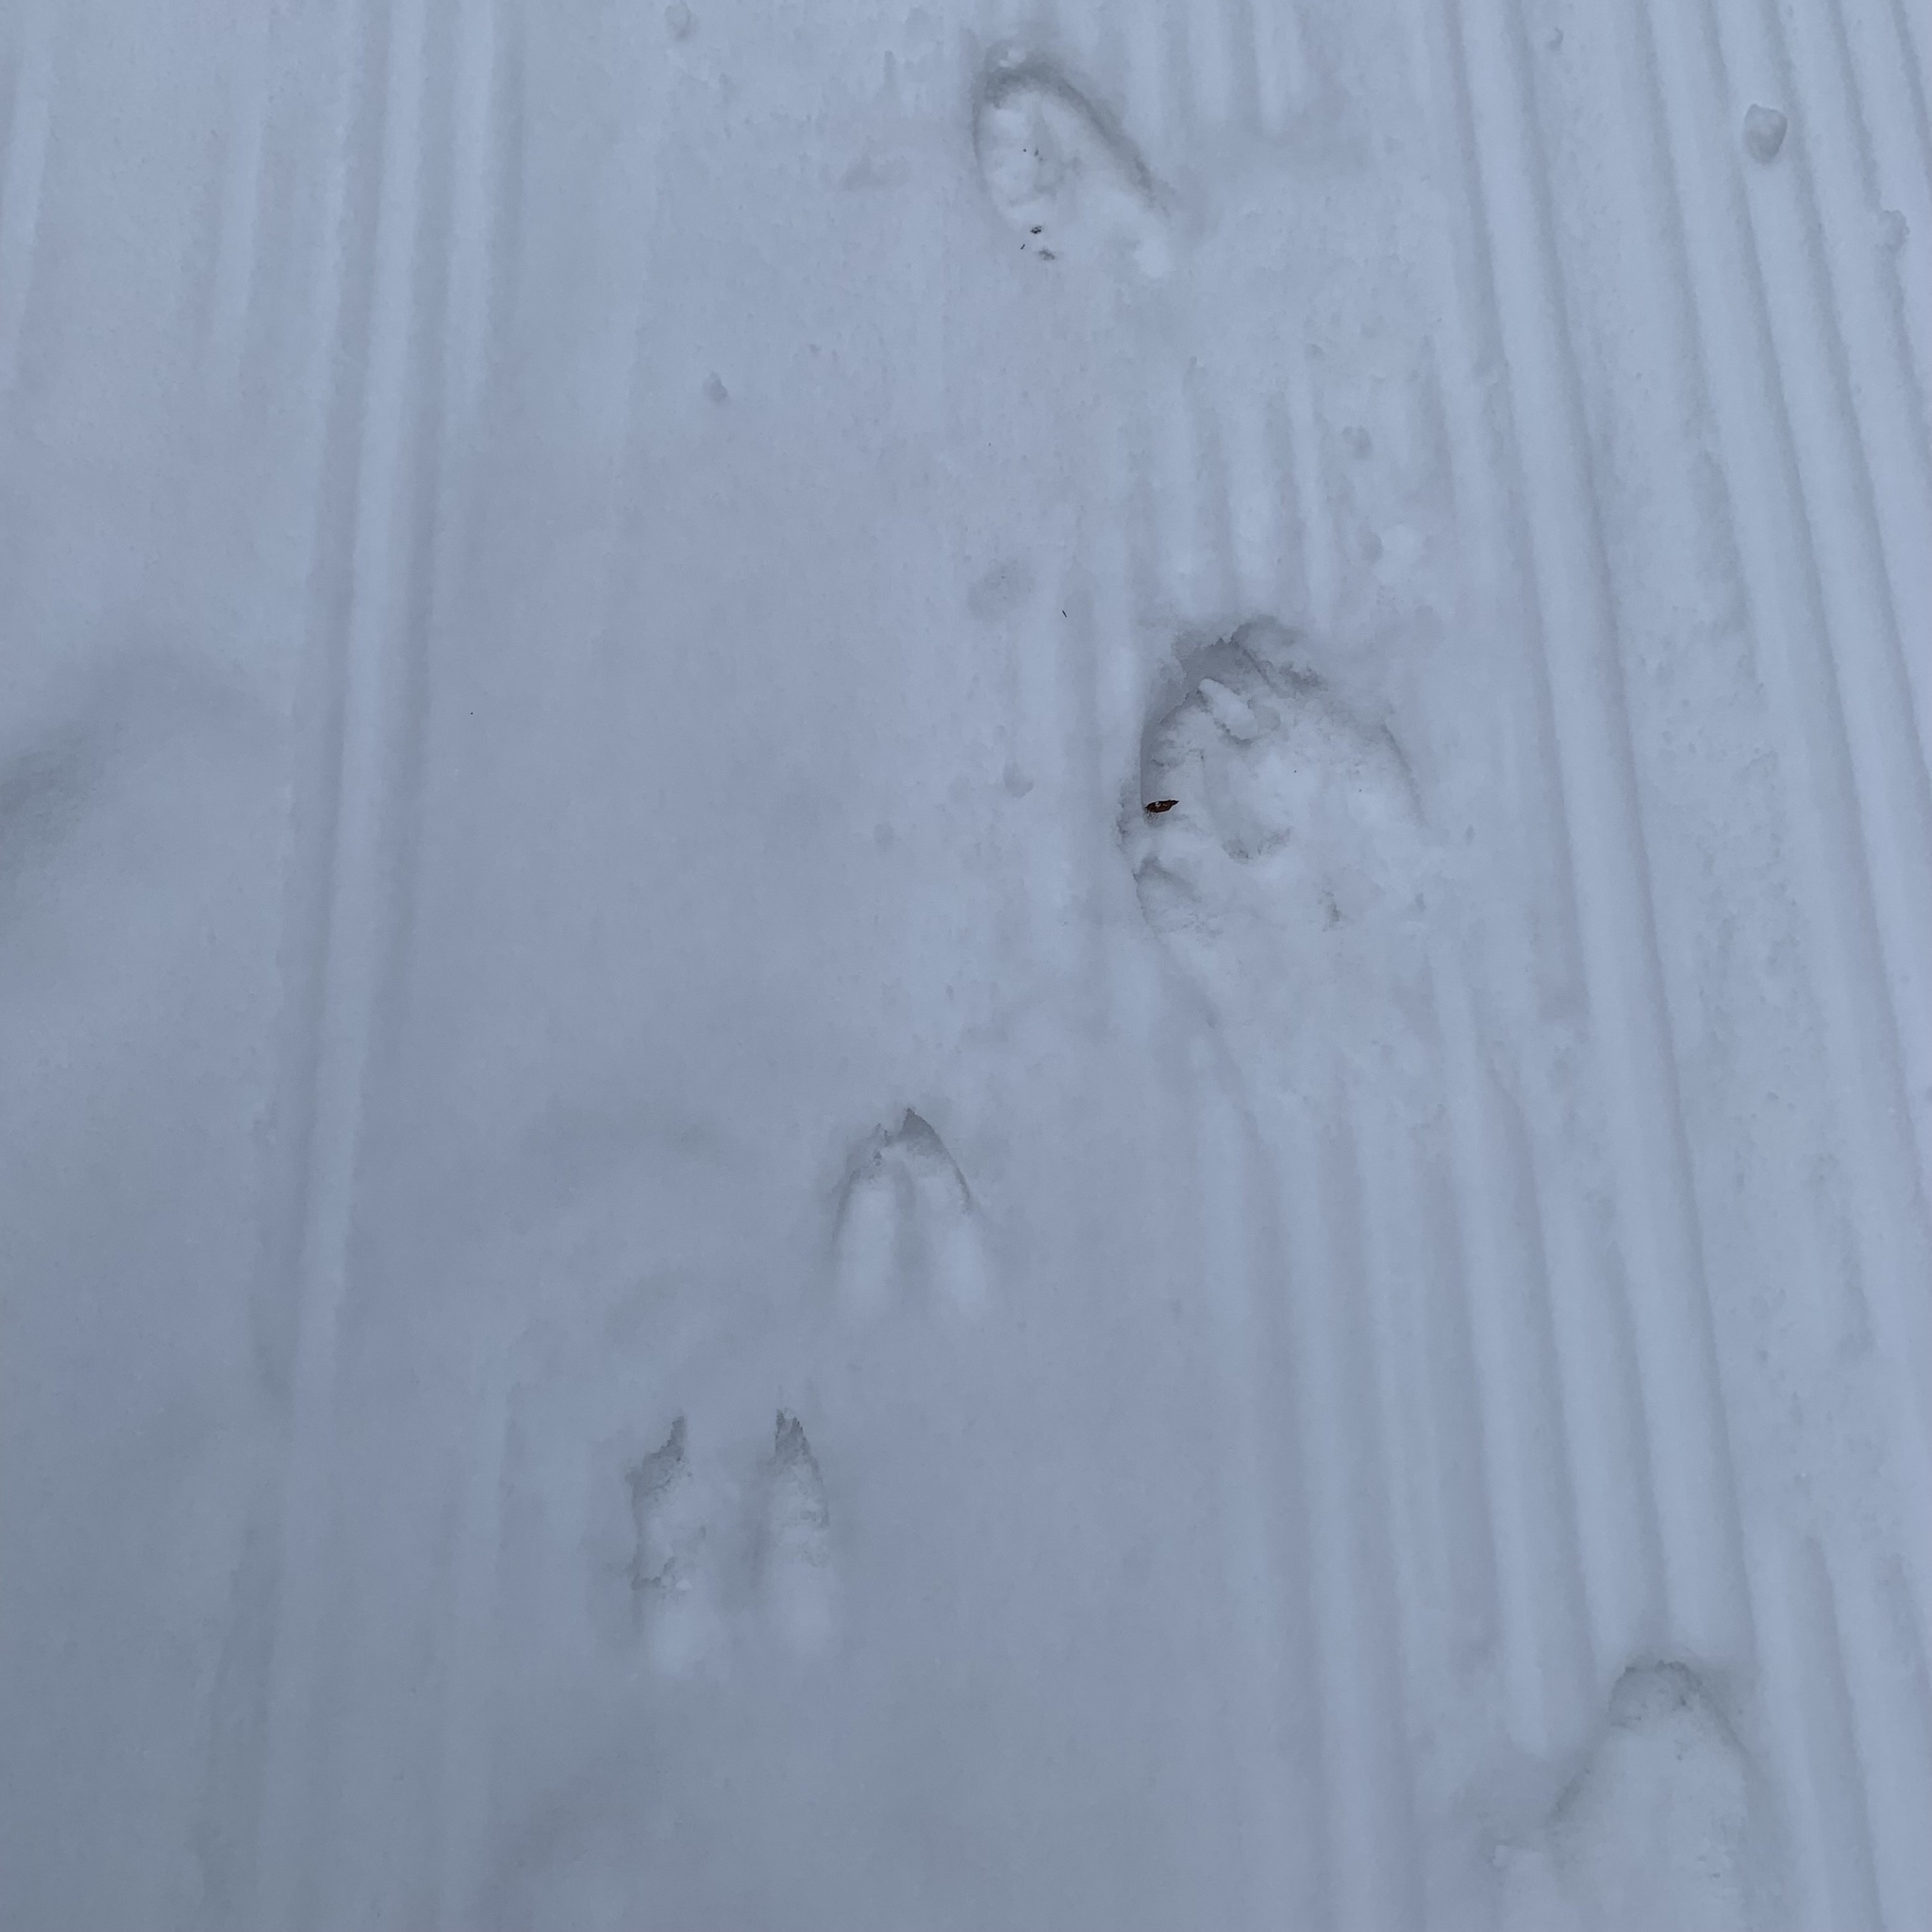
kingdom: Animalia
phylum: Chordata
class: Mammalia
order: Artiodactyla
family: Cervidae
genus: Odocoileus
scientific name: Odocoileus virginianus
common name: White-tailed deer
